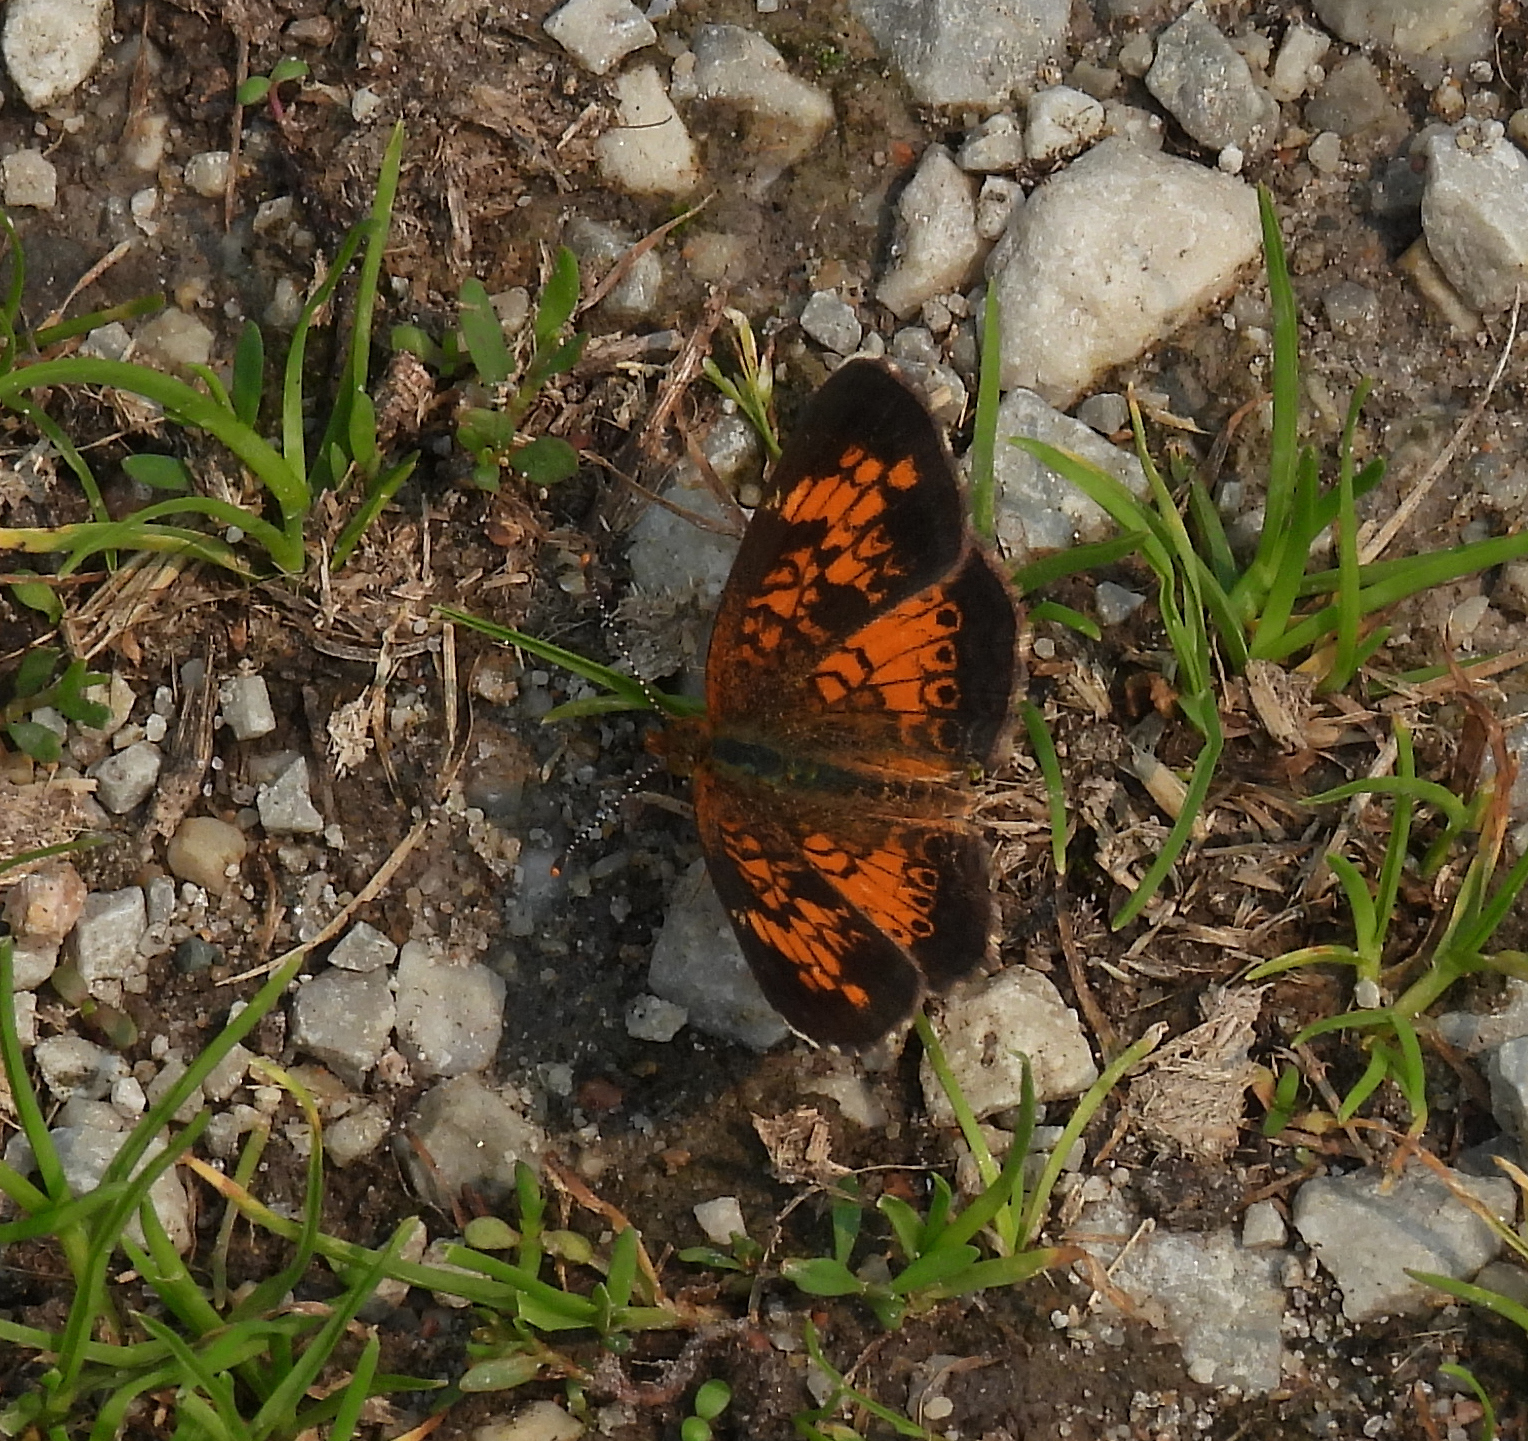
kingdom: Animalia
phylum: Arthropoda
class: Insecta
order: Lepidoptera
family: Nymphalidae
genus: Phyciodes
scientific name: Phyciodes tharos
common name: Pearl crescent
